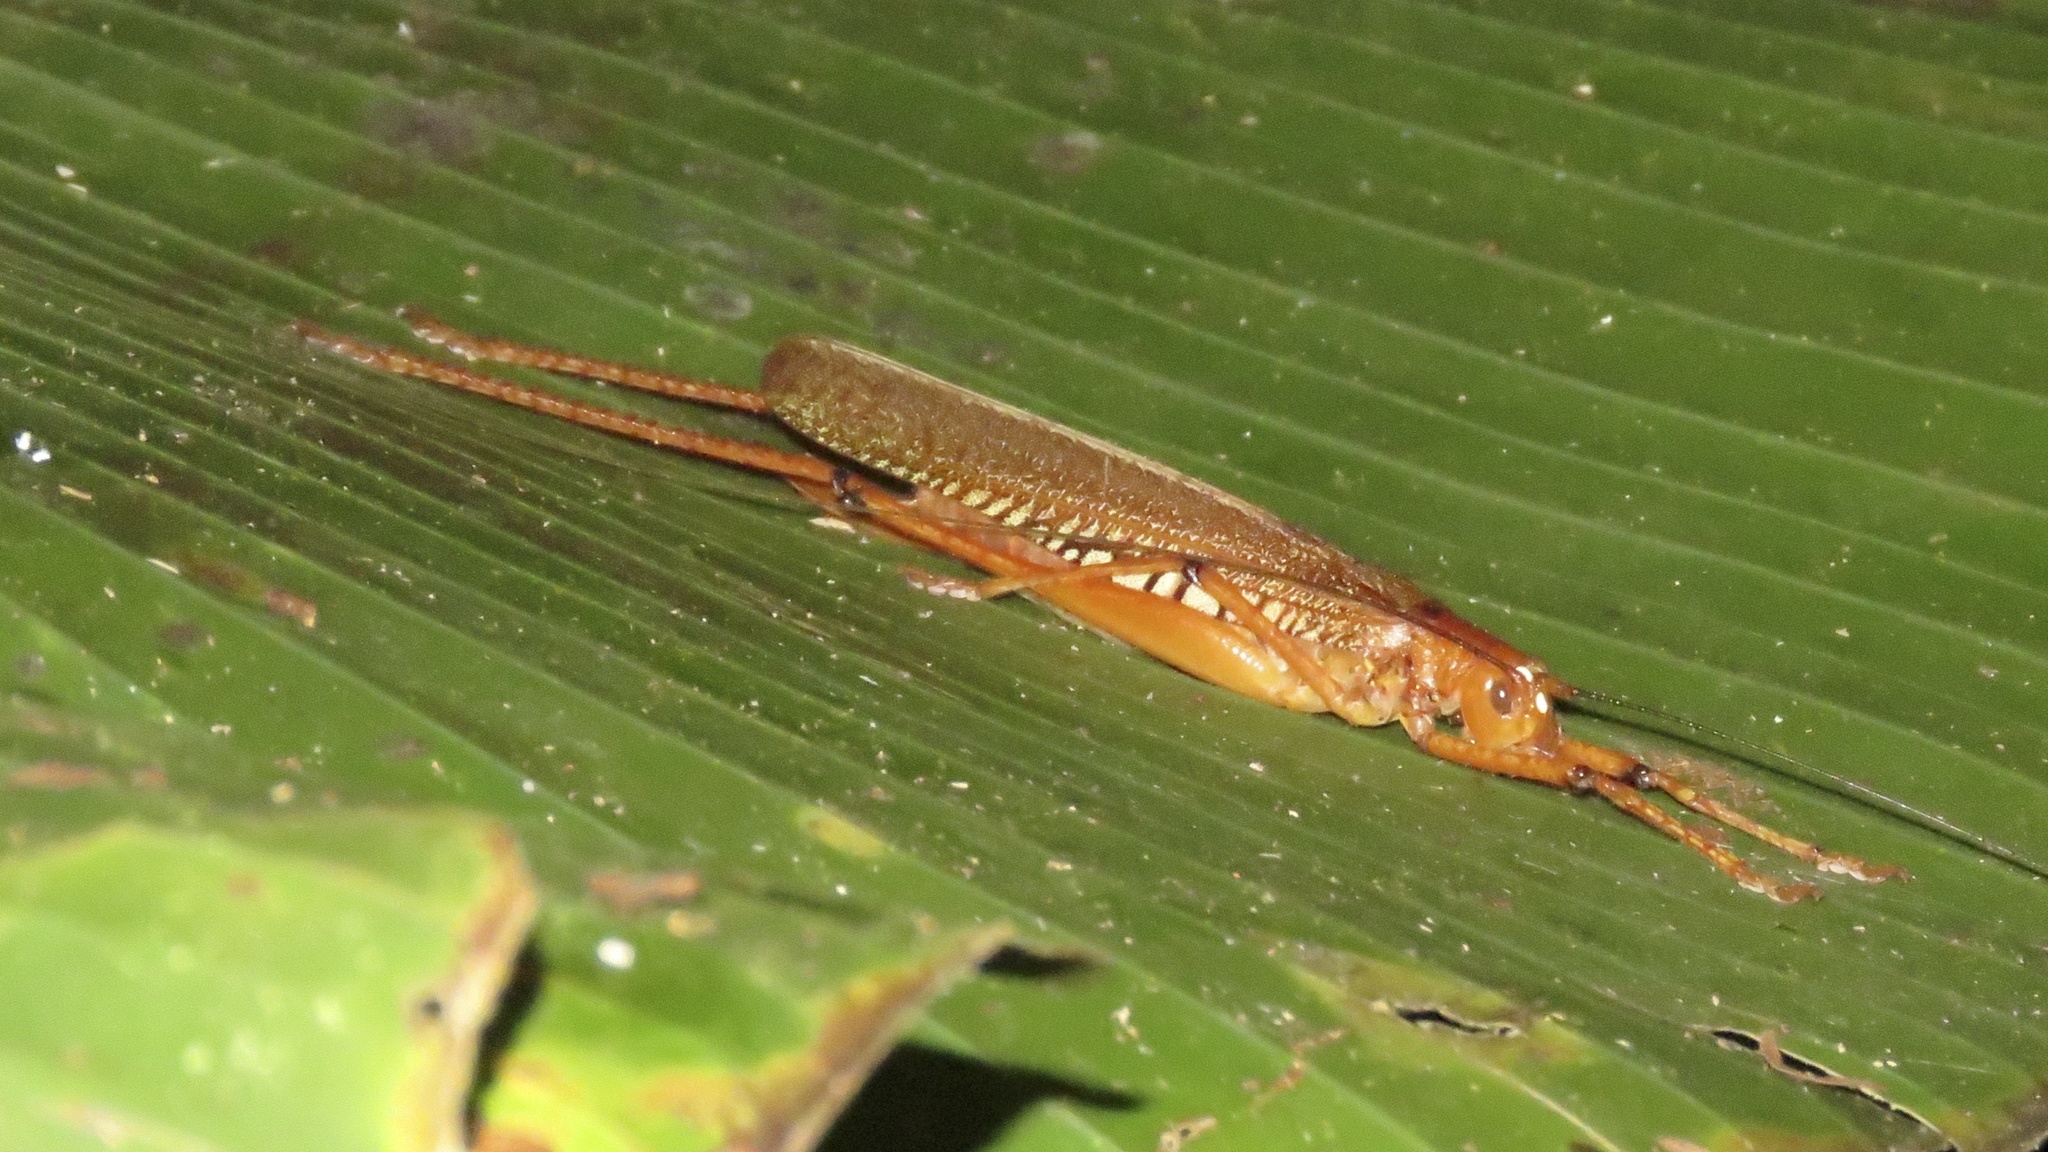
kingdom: Animalia
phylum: Arthropoda
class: Insecta
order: Orthoptera
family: Tettigoniidae
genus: Ischnomela
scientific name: Ischnomela gracilis
